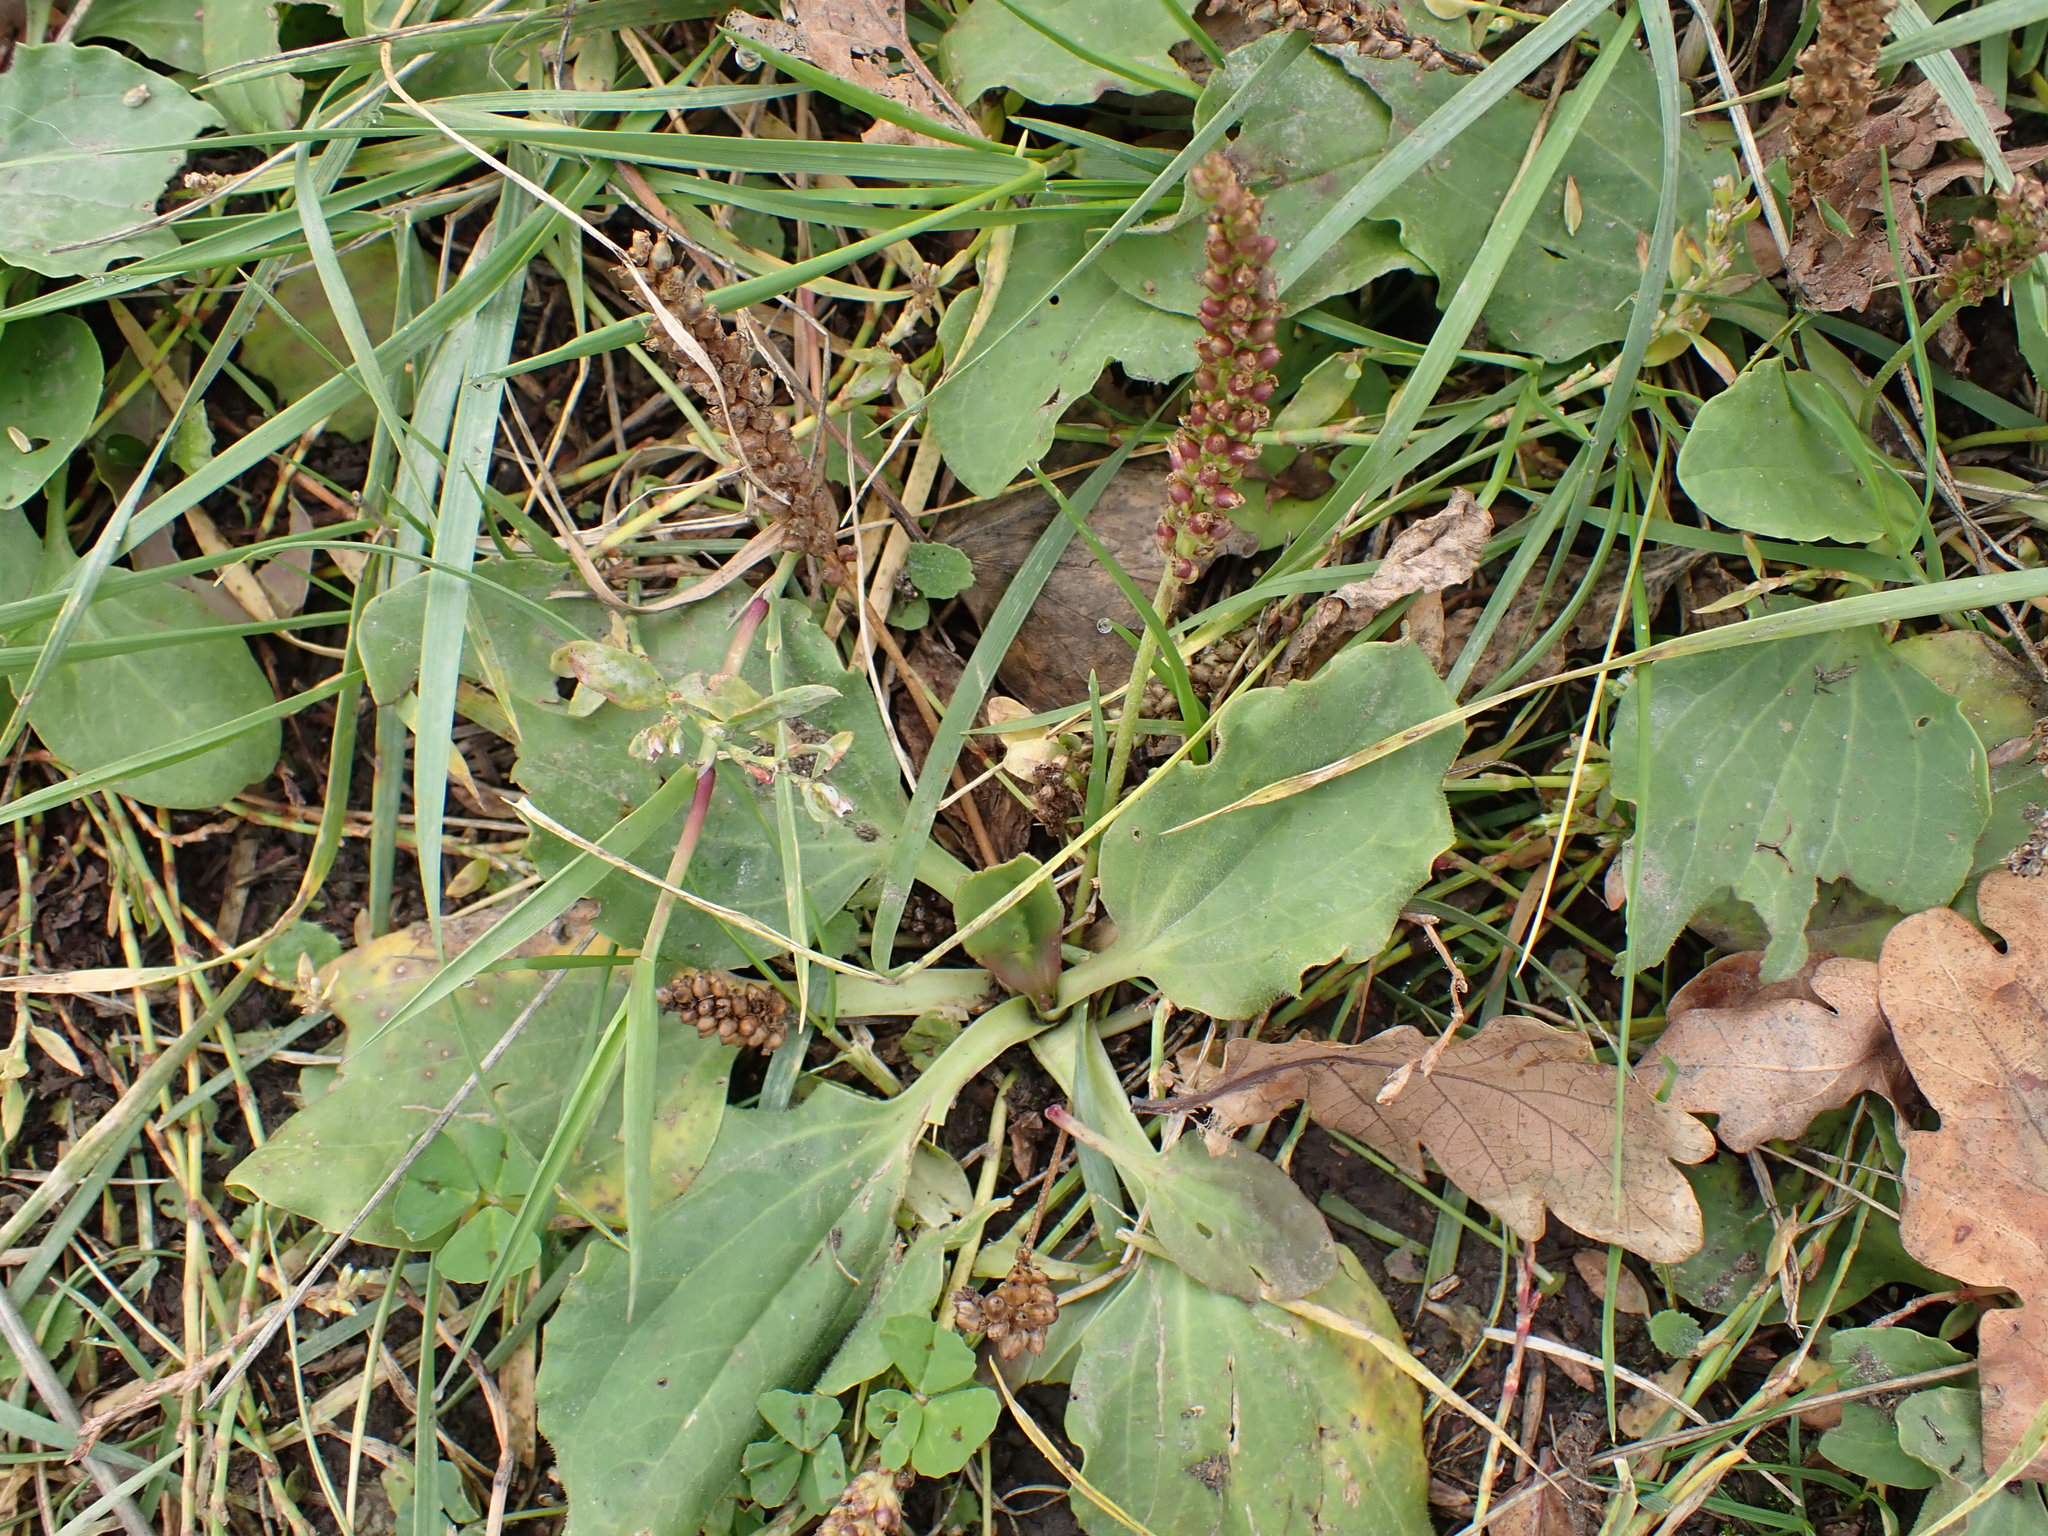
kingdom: Plantae
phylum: Tracheophyta
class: Magnoliopsida
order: Lamiales
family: Plantaginaceae
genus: Plantago
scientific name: Plantago major
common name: Common plantain
